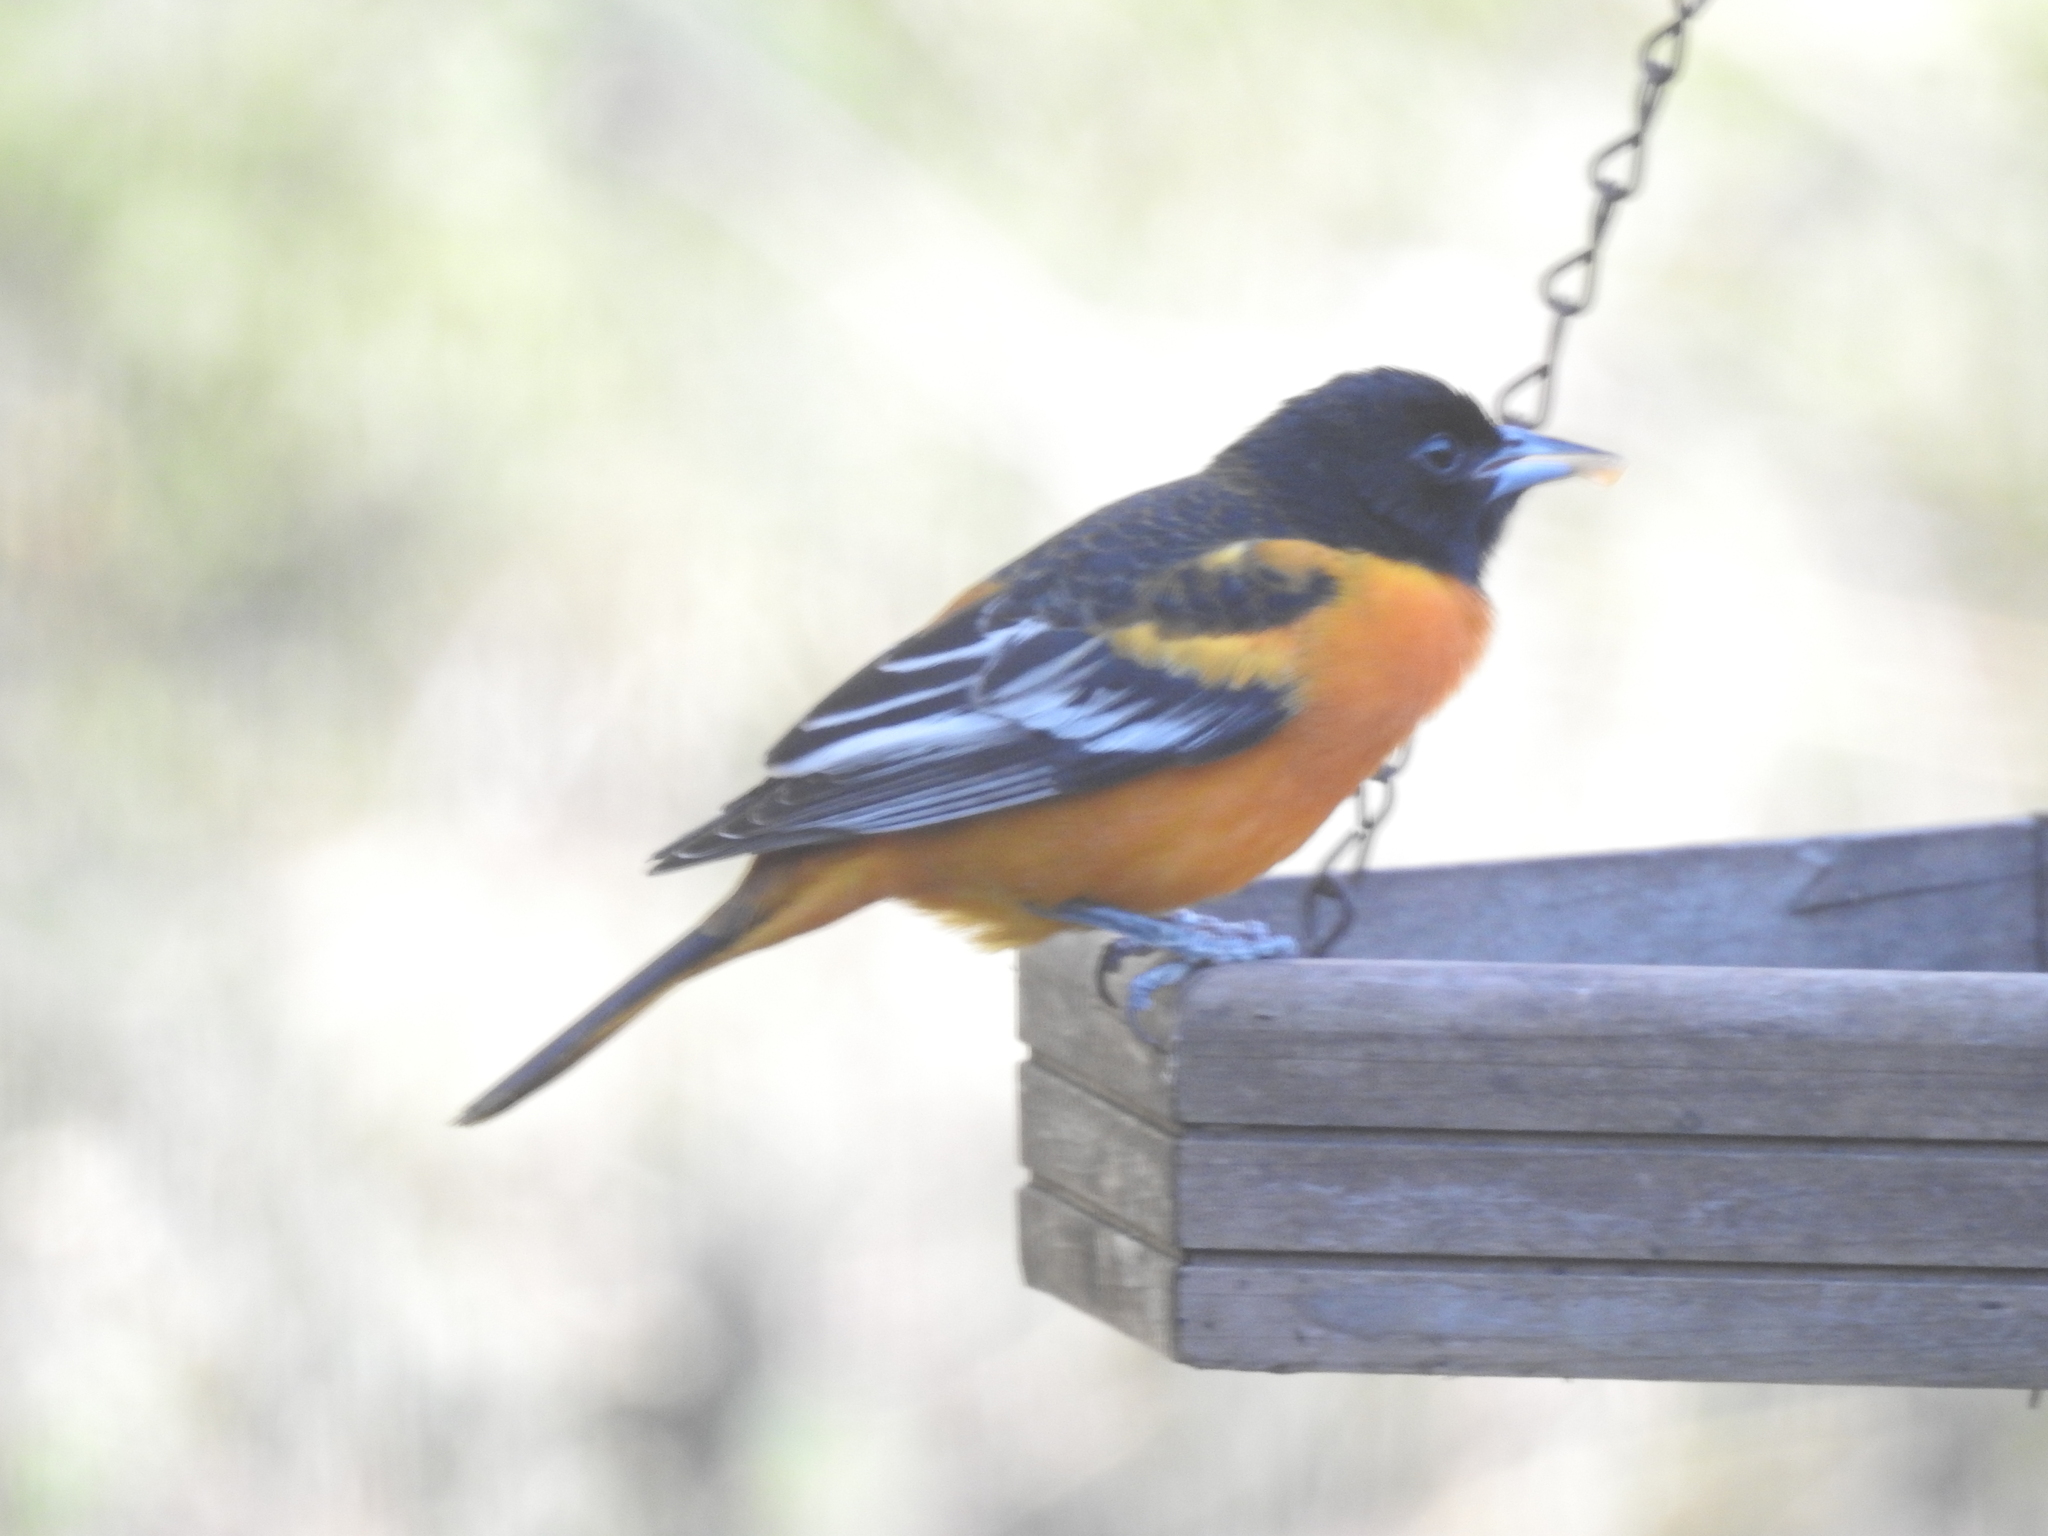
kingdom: Animalia
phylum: Chordata
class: Aves
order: Passeriformes
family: Icteridae
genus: Icterus
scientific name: Icterus galbula
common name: Baltimore oriole
